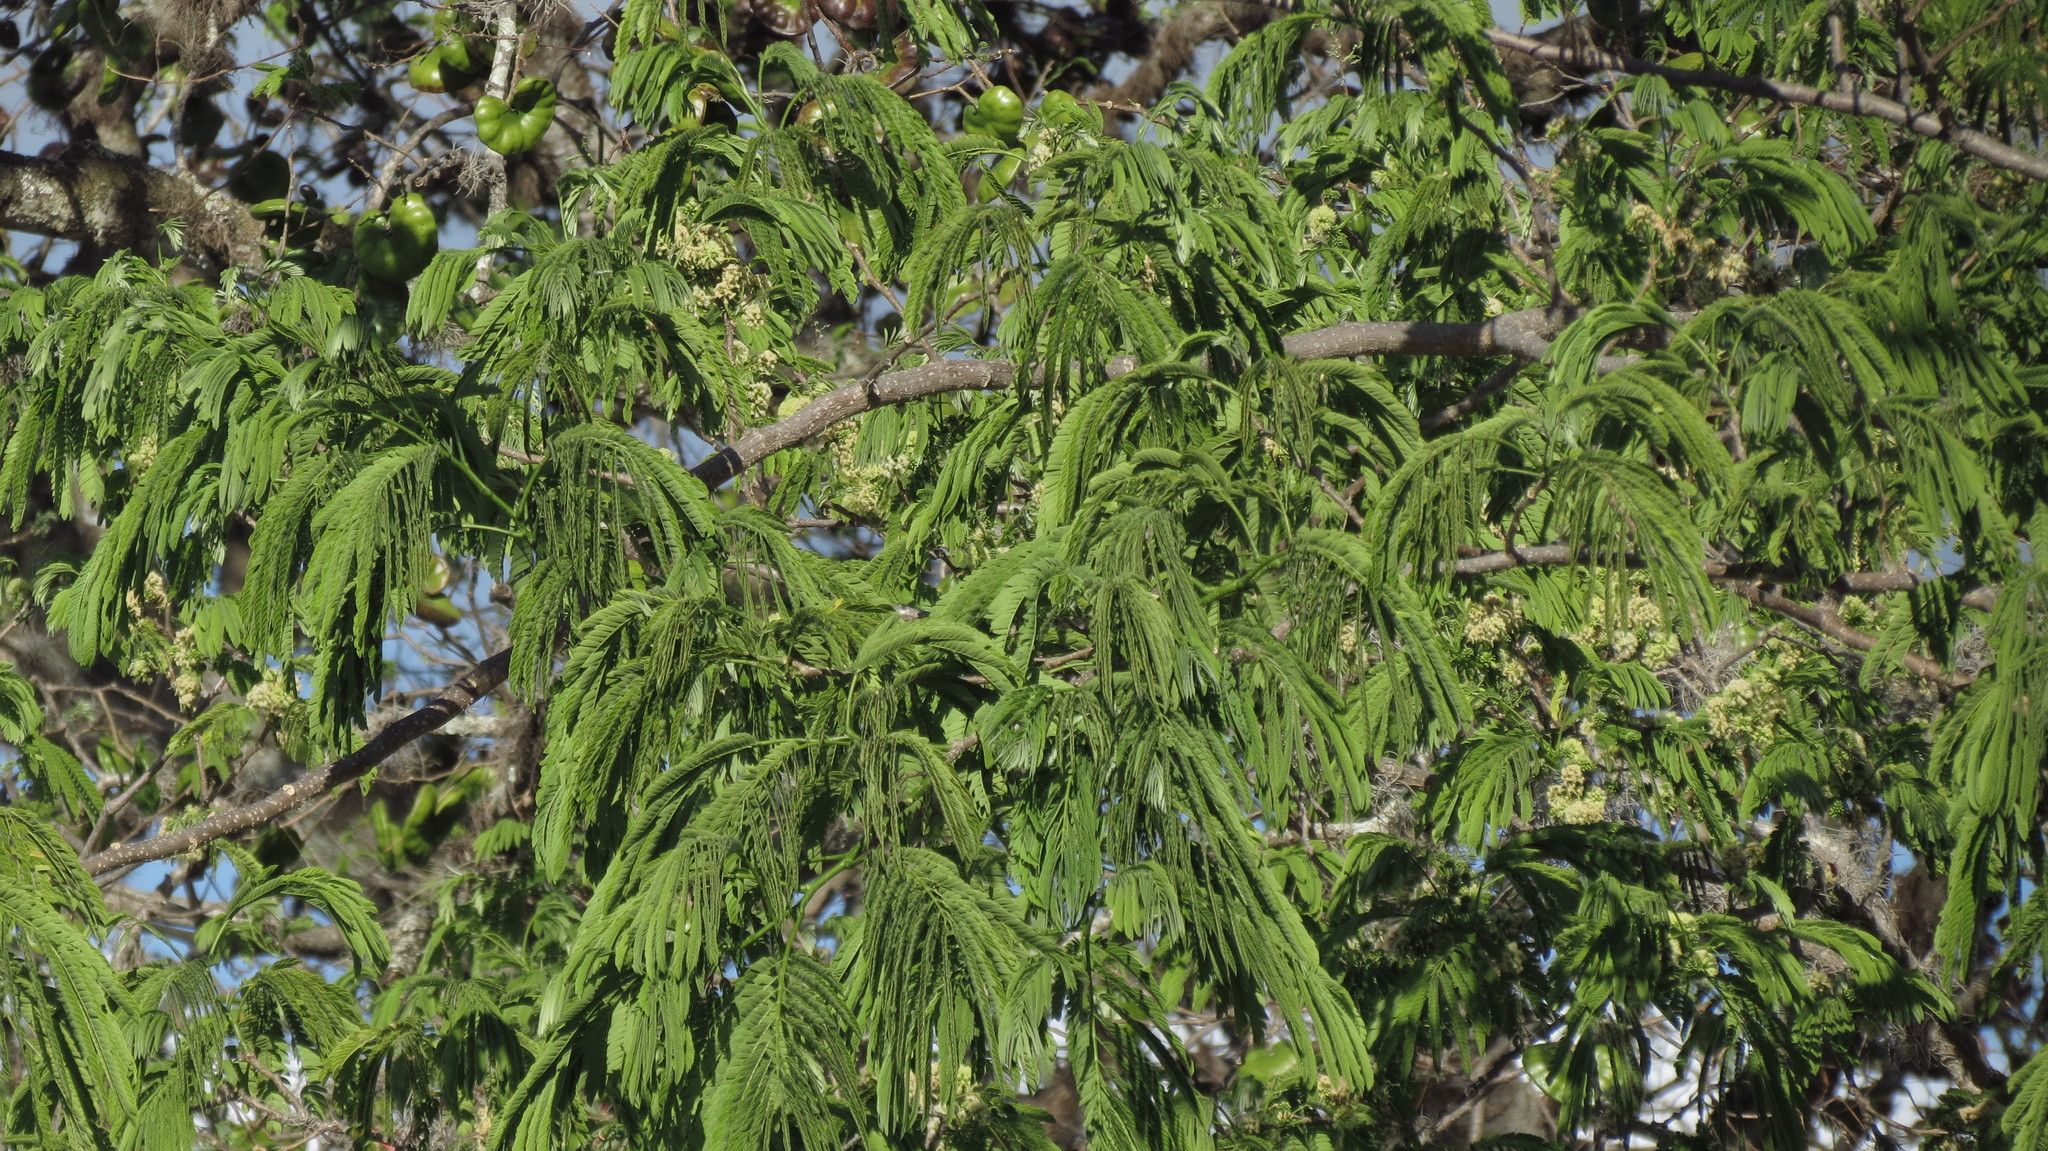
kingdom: Plantae
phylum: Tracheophyta
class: Magnoliopsida
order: Fabales
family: Fabaceae
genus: Enterolobium
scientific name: Enterolobium cyclocarpum
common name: Ear tree
